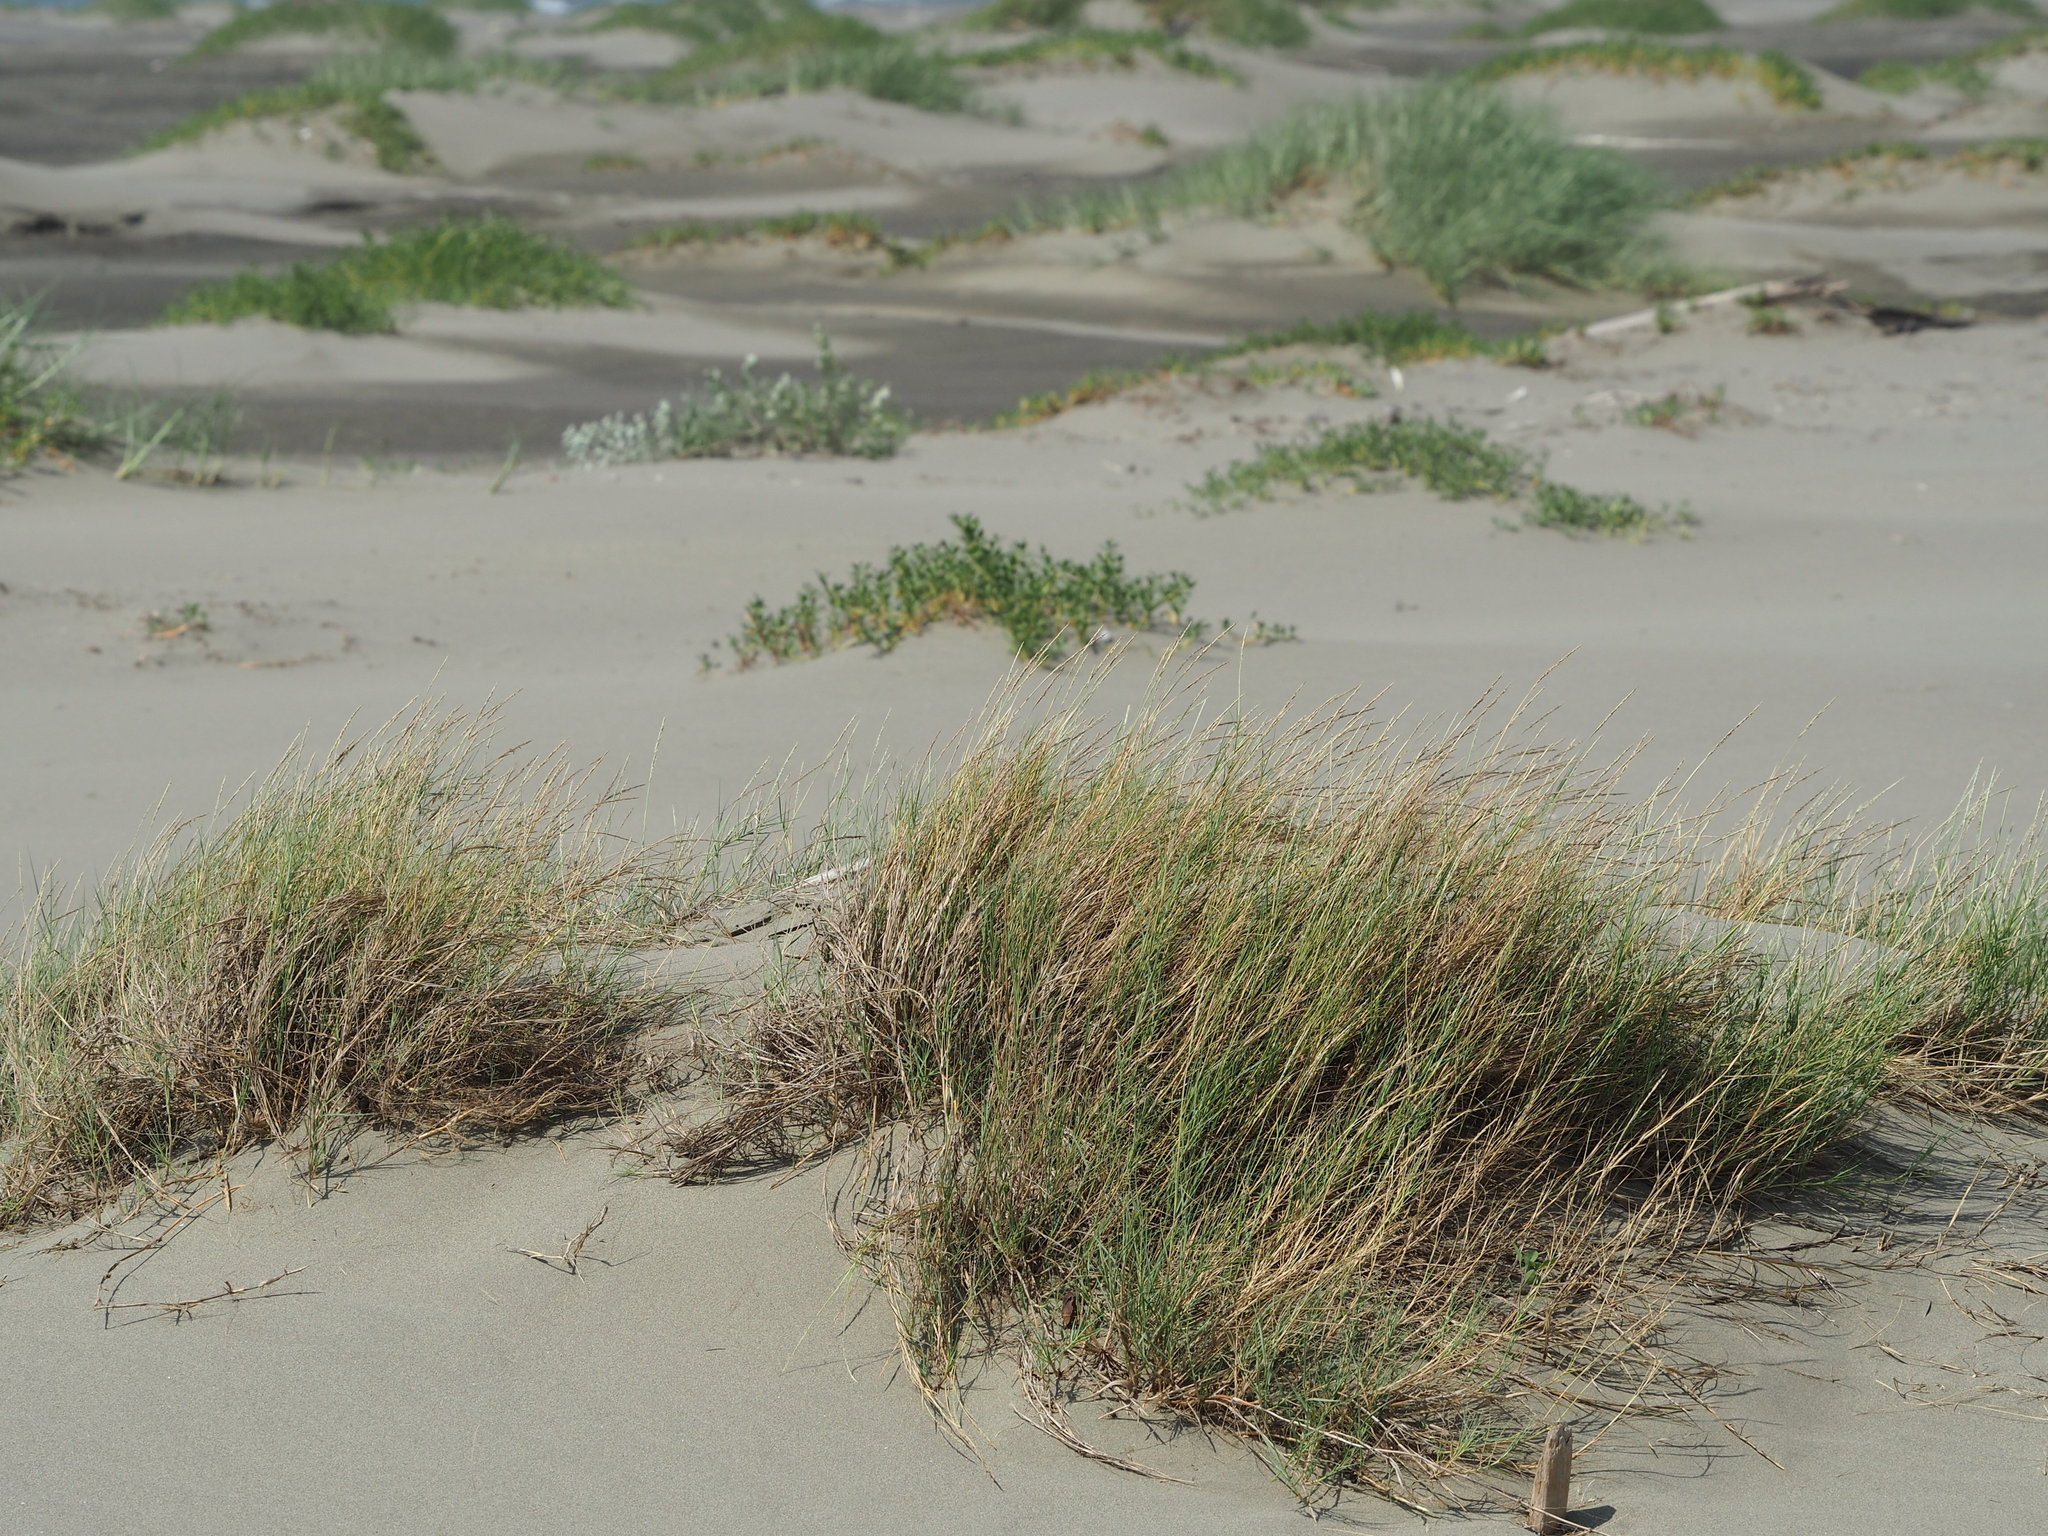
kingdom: Plantae
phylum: Tracheophyta
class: Liliopsida
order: Poales
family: Poaceae
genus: Sporobolus
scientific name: Sporobolus virginicus
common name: Beach dropseed
